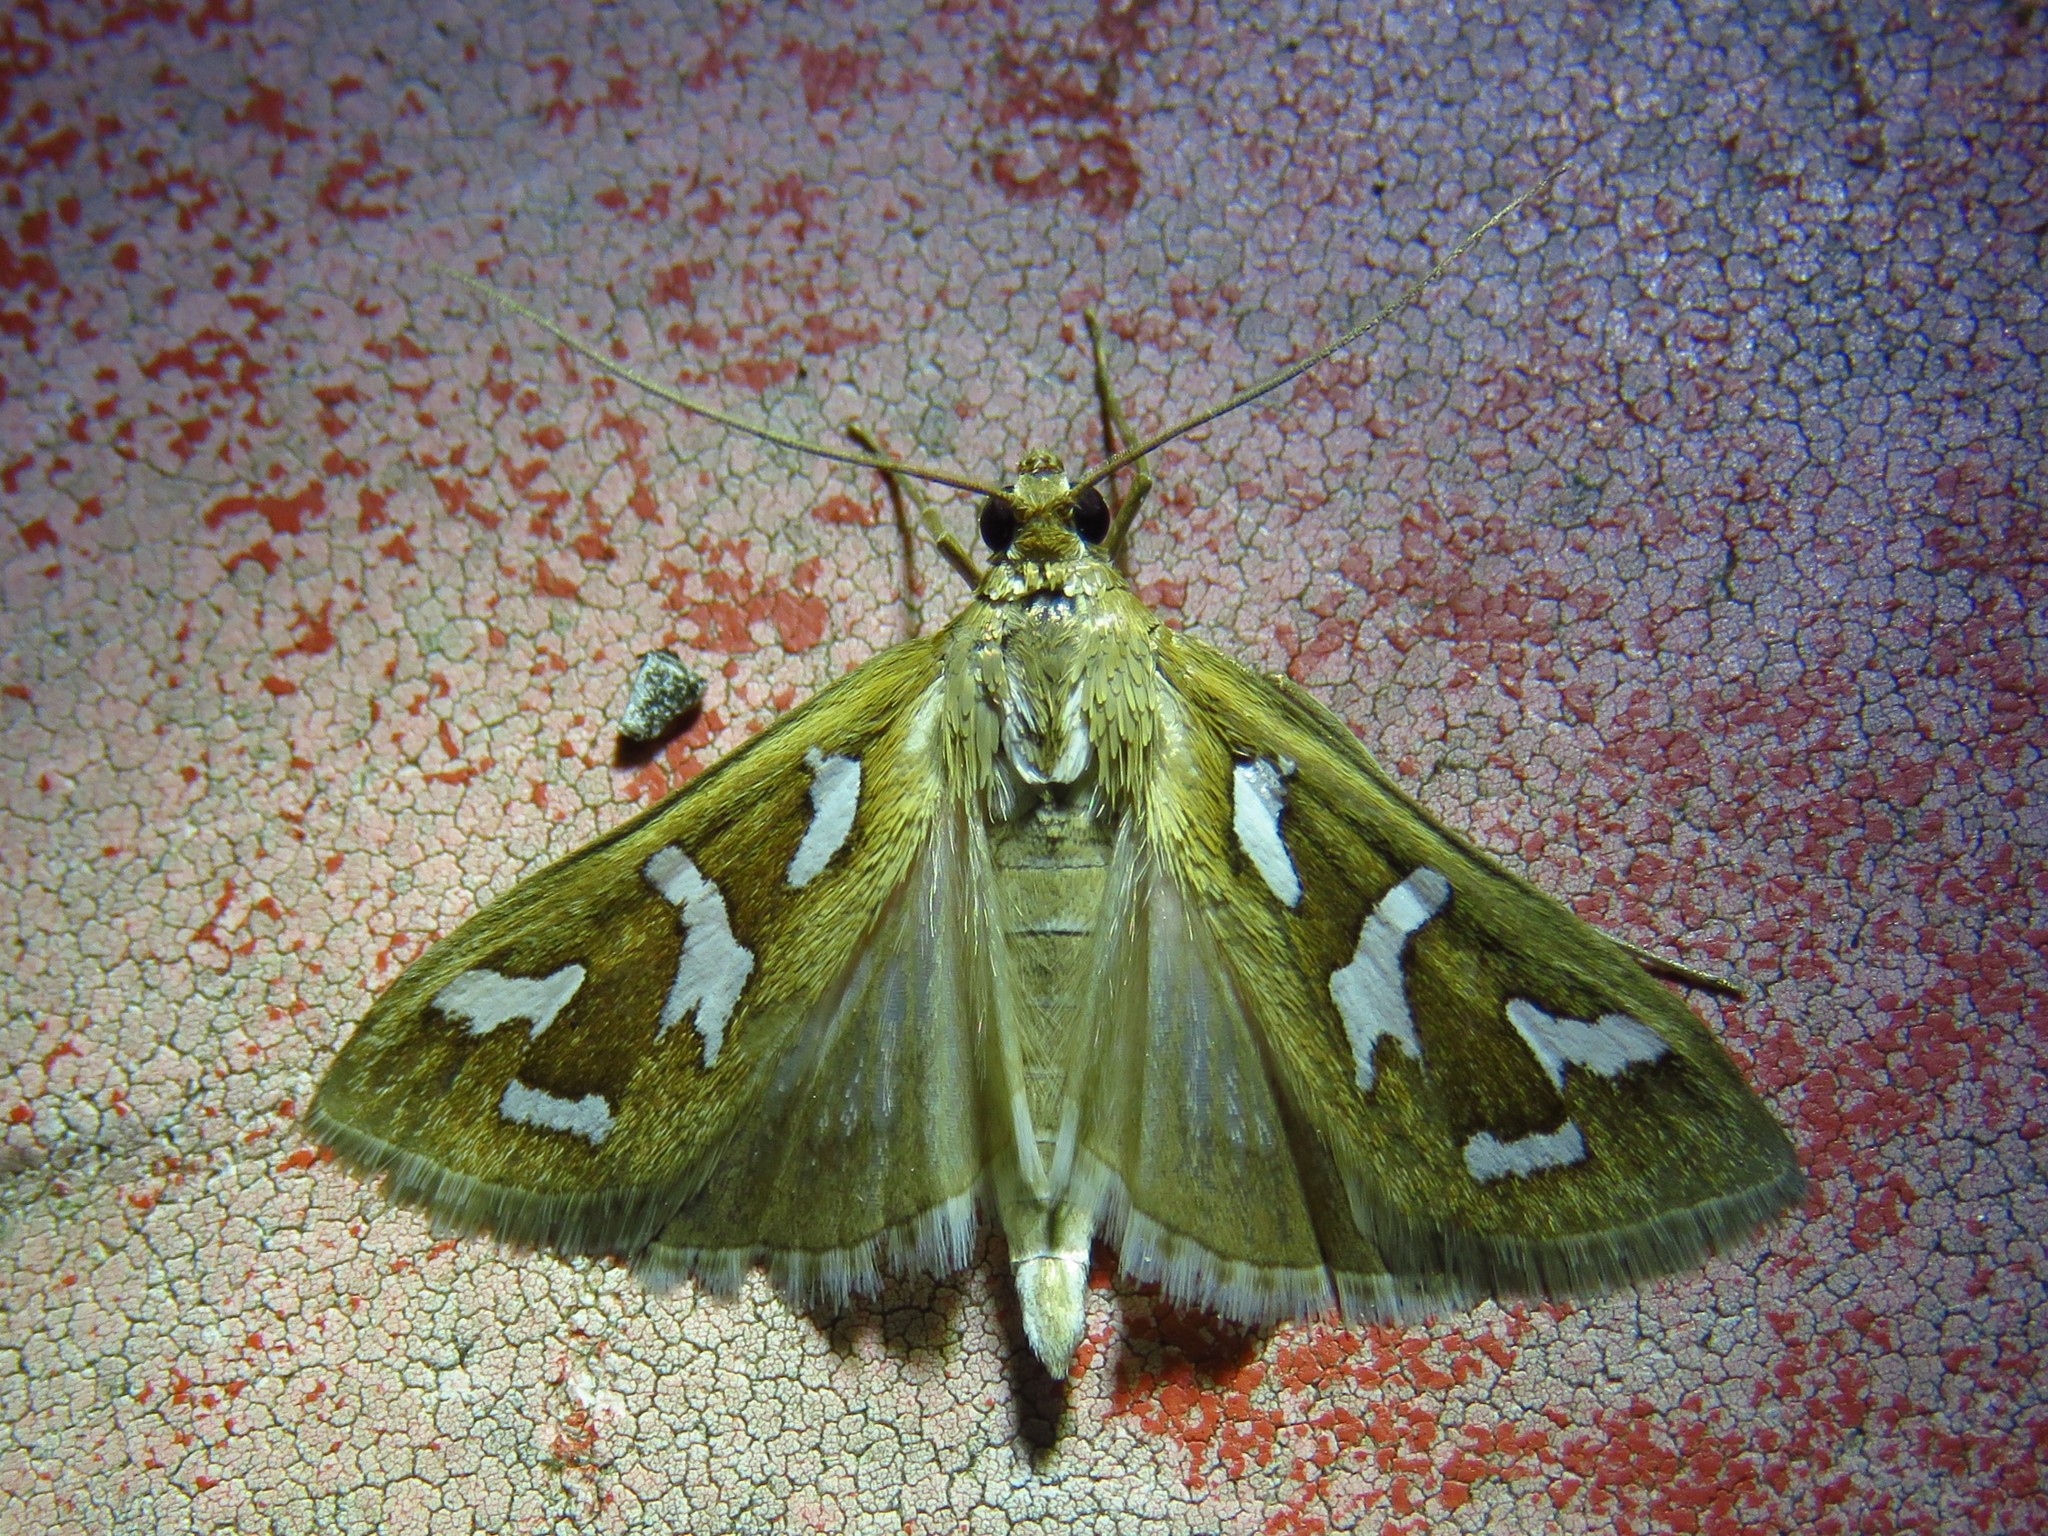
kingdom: Animalia
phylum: Arthropoda
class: Insecta
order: Lepidoptera
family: Crambidae
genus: Diastictis
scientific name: Diastictis fracturalis
